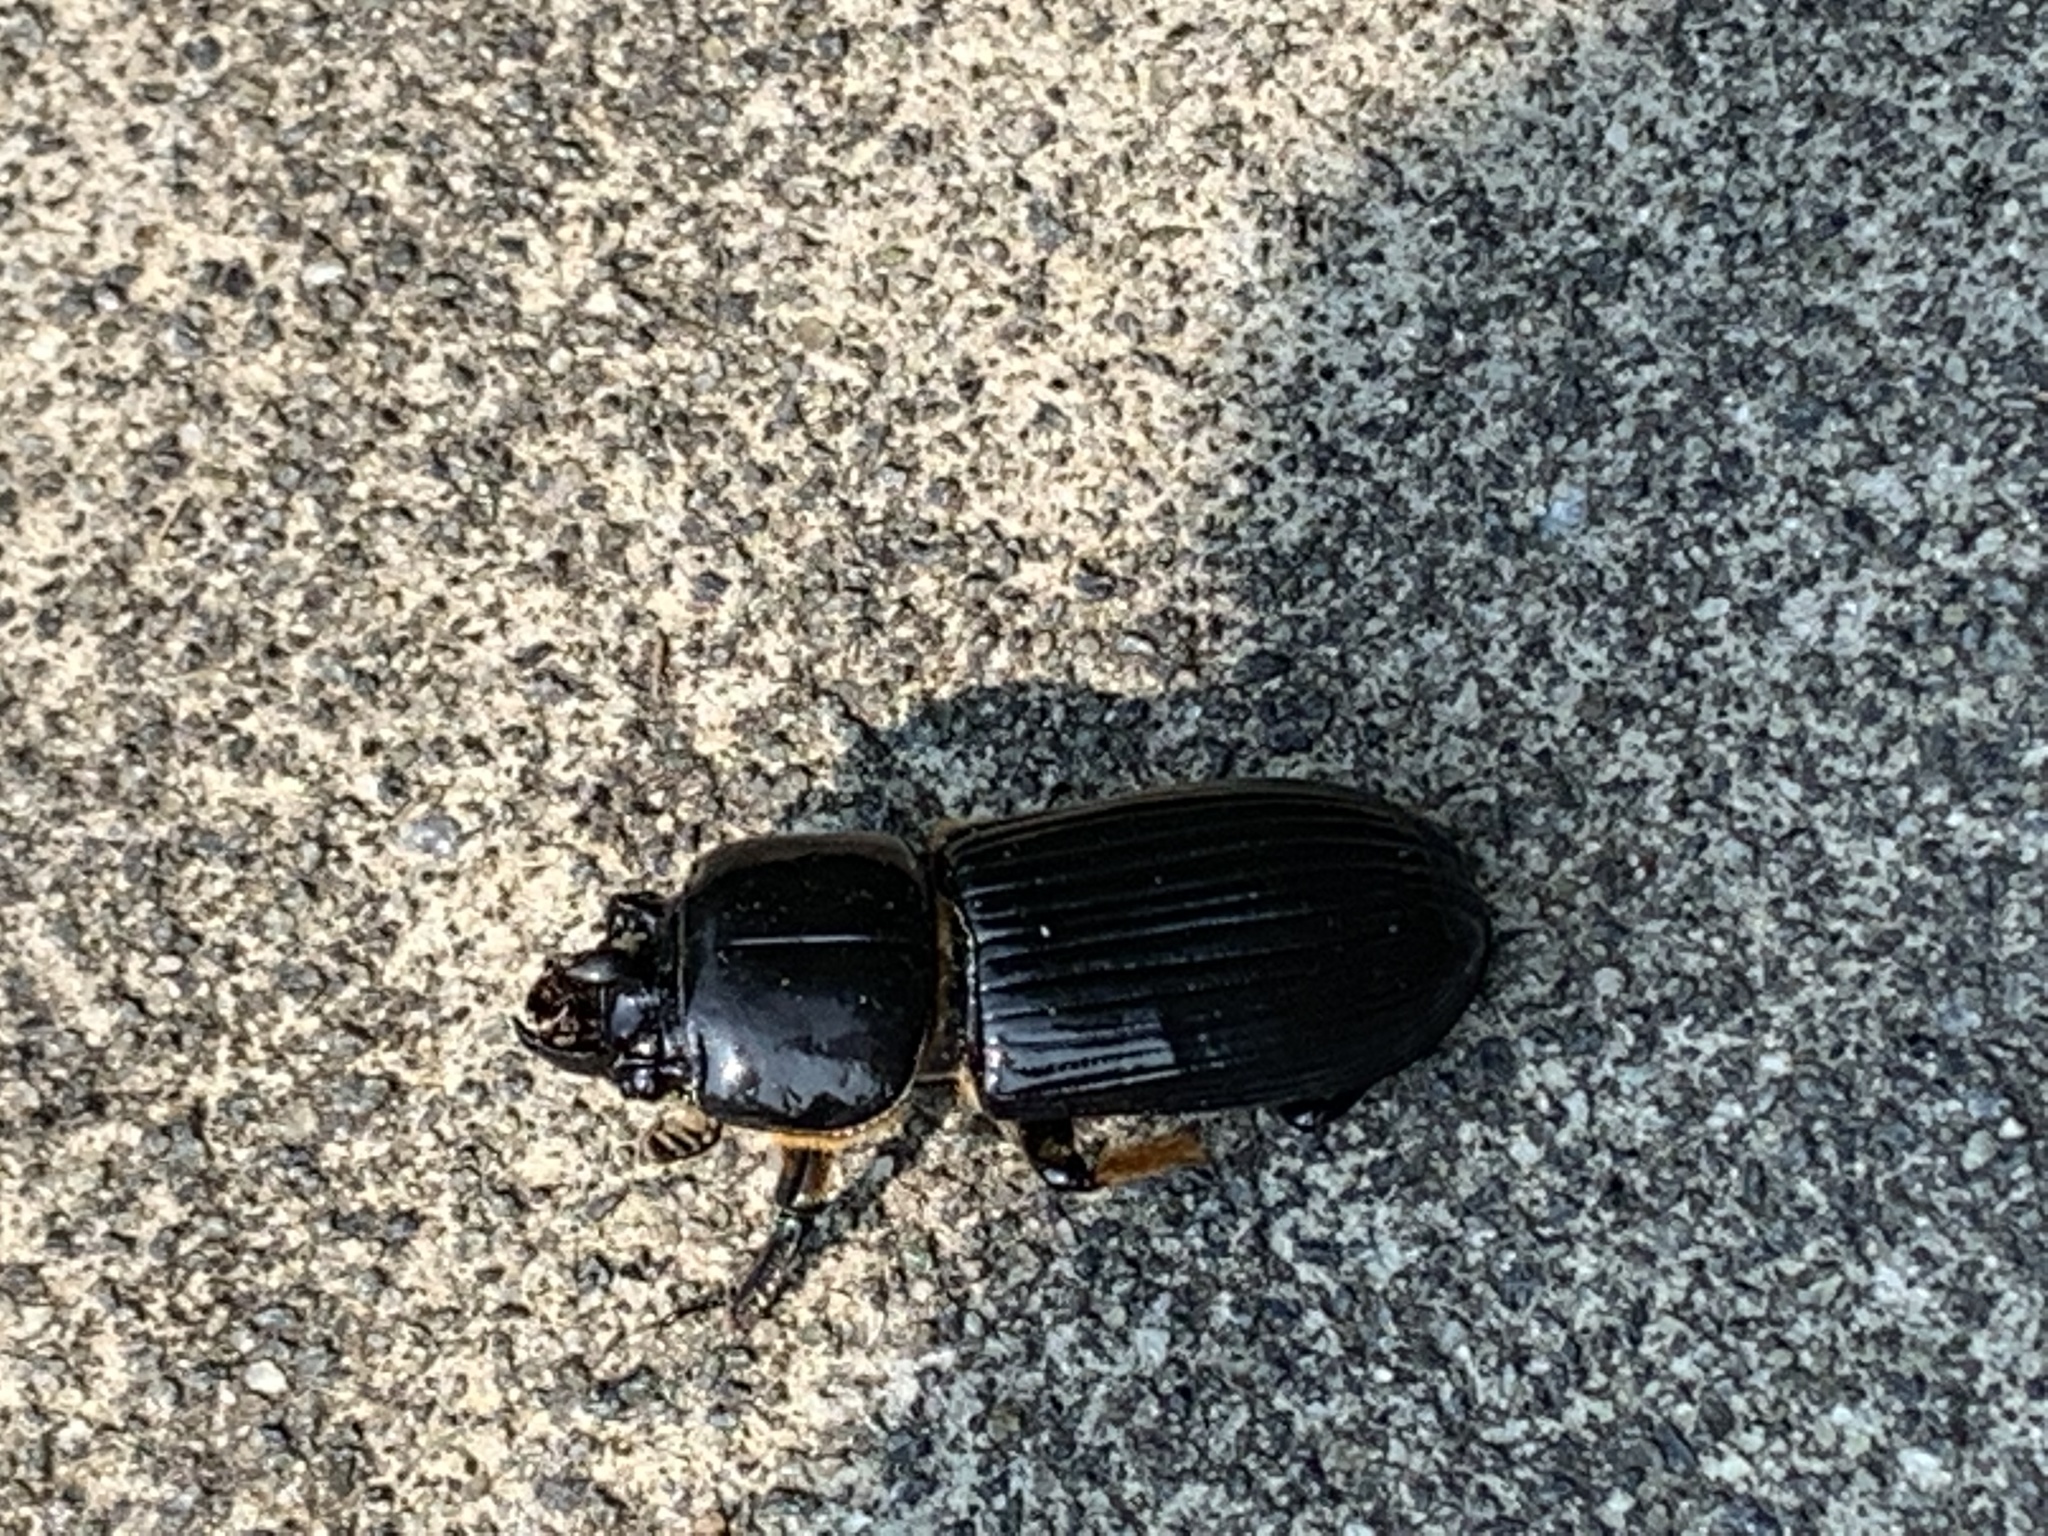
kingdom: Animalia
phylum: Arthropoda
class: Insecta
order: Coleoptera
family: Passalidae
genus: Odontotaenius
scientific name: Odontotaenius disjunctus
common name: Patent leather beetle
